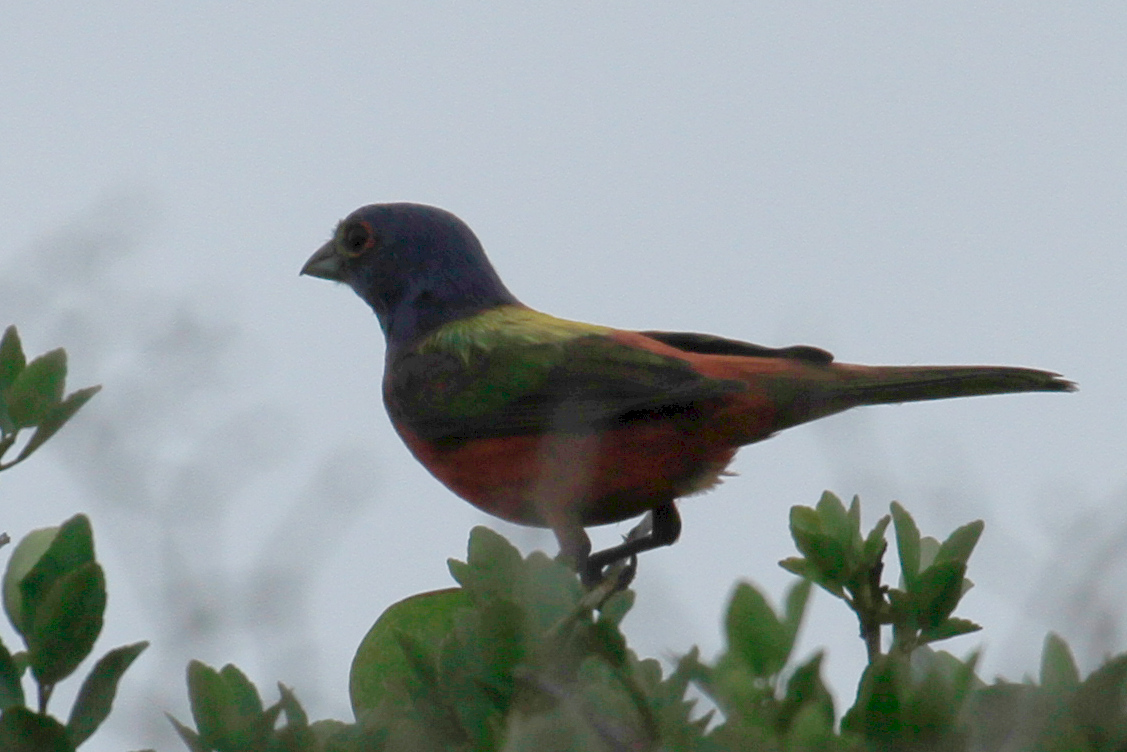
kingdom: Animalia
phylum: Chordata
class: Aves
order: Passeriformes
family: Cardinalidae
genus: Passerina
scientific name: Passerina ciris
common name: Painted bunting
